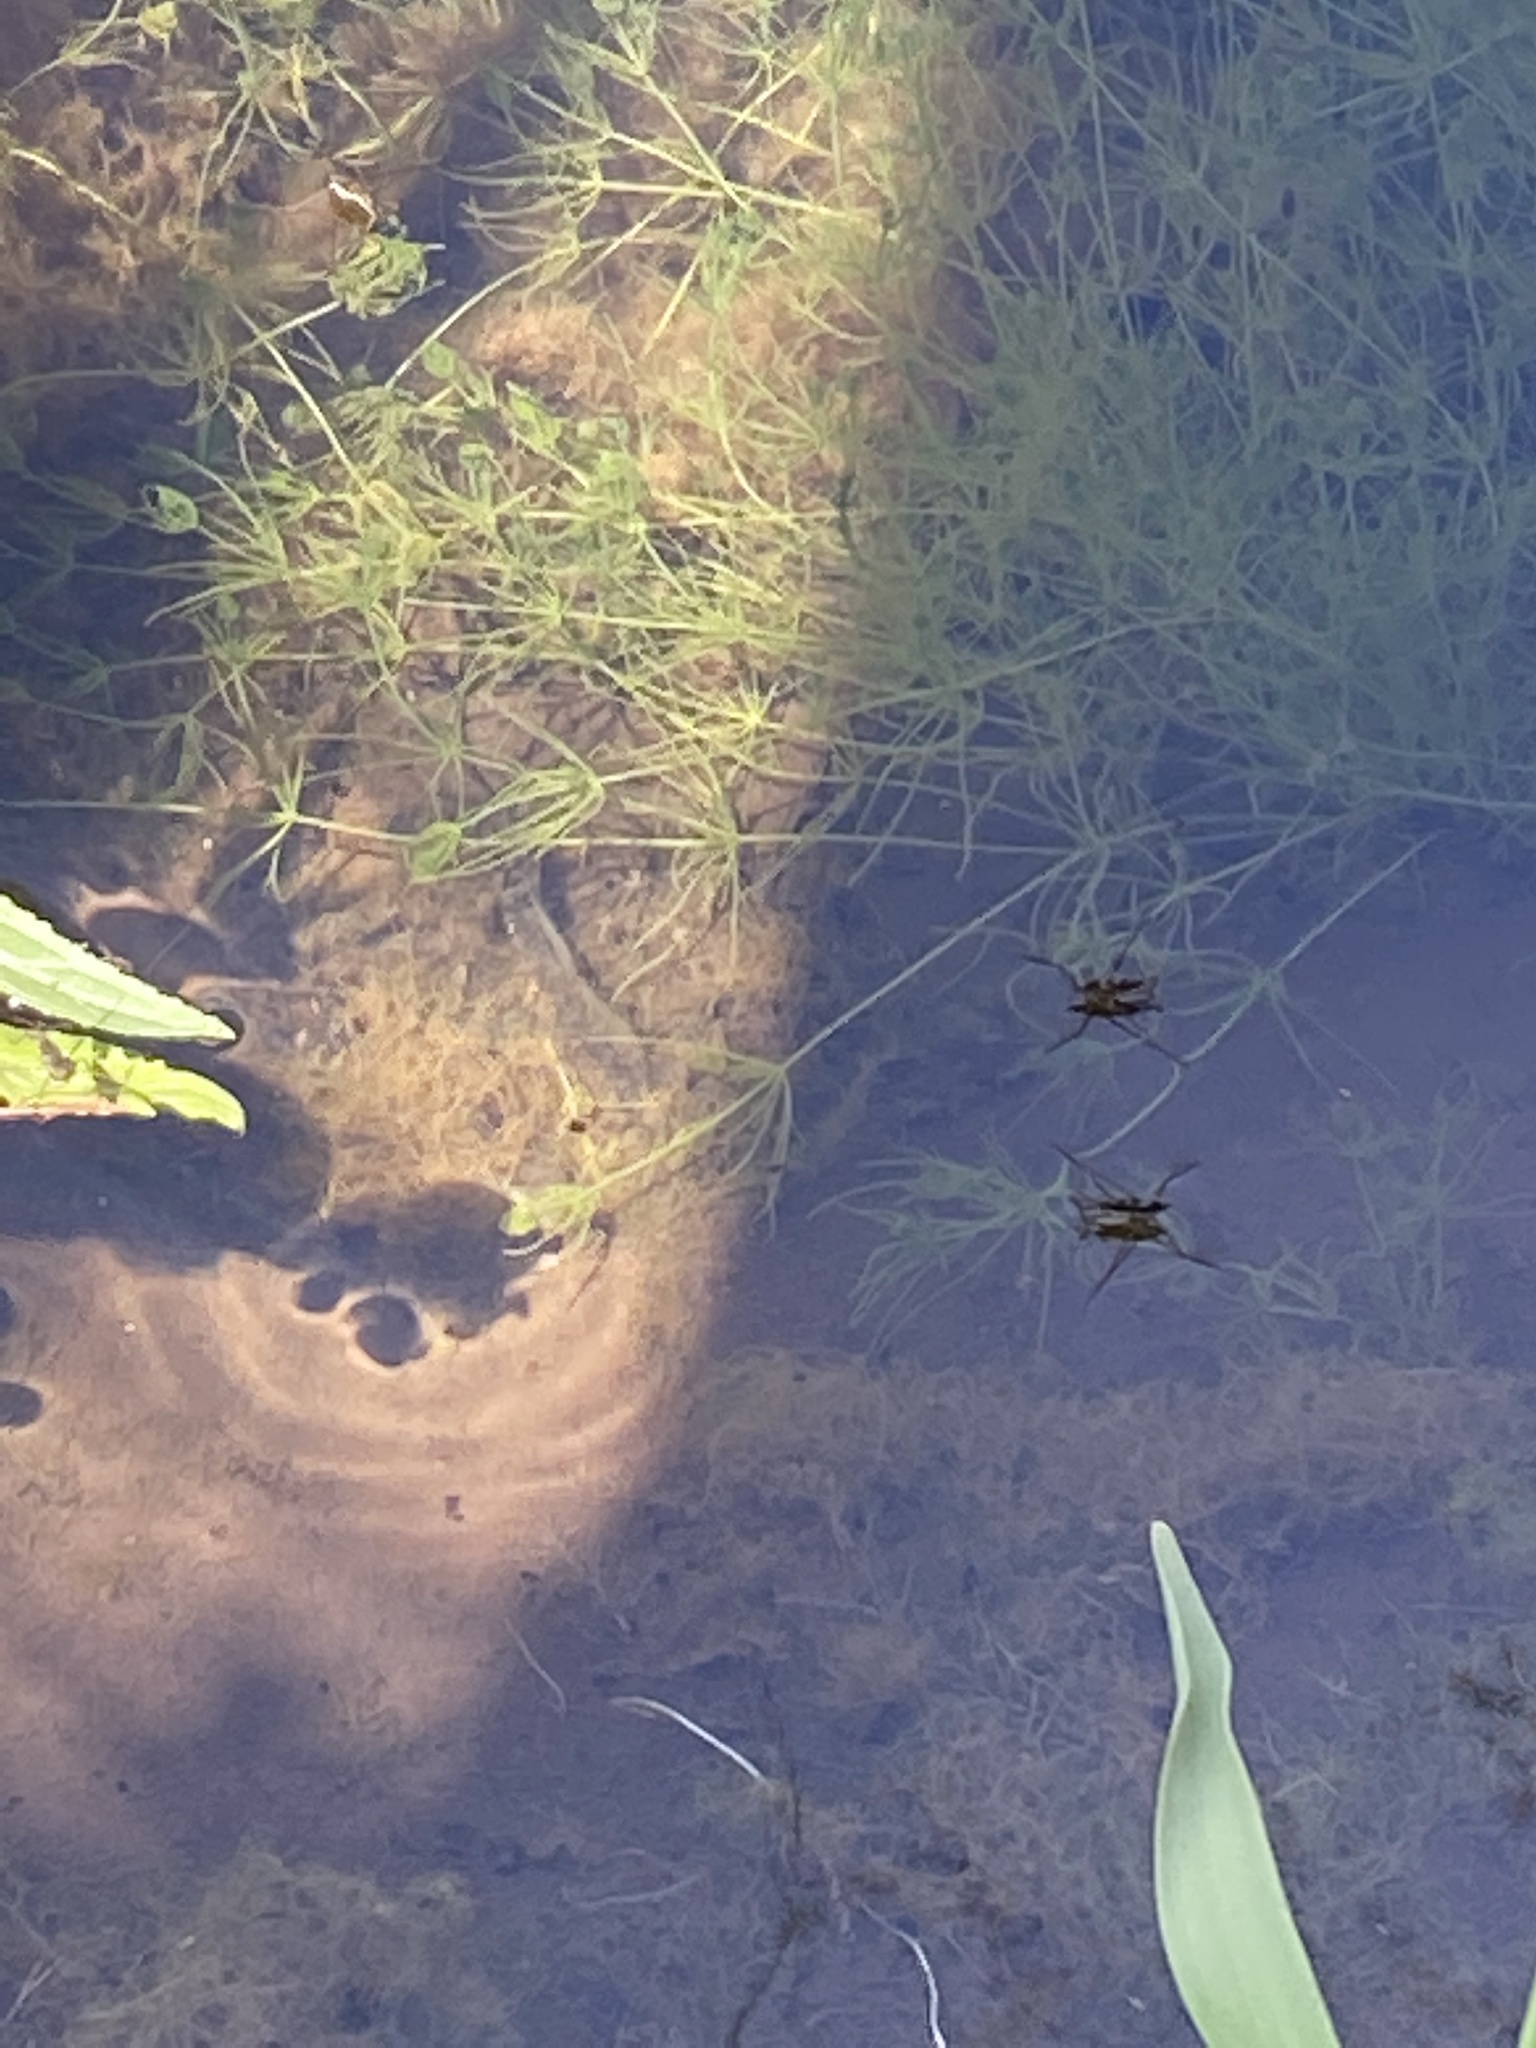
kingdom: Animalia
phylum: Arthropoda
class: Insecta
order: Hemiptera
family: Gerridae
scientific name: Gerridae
